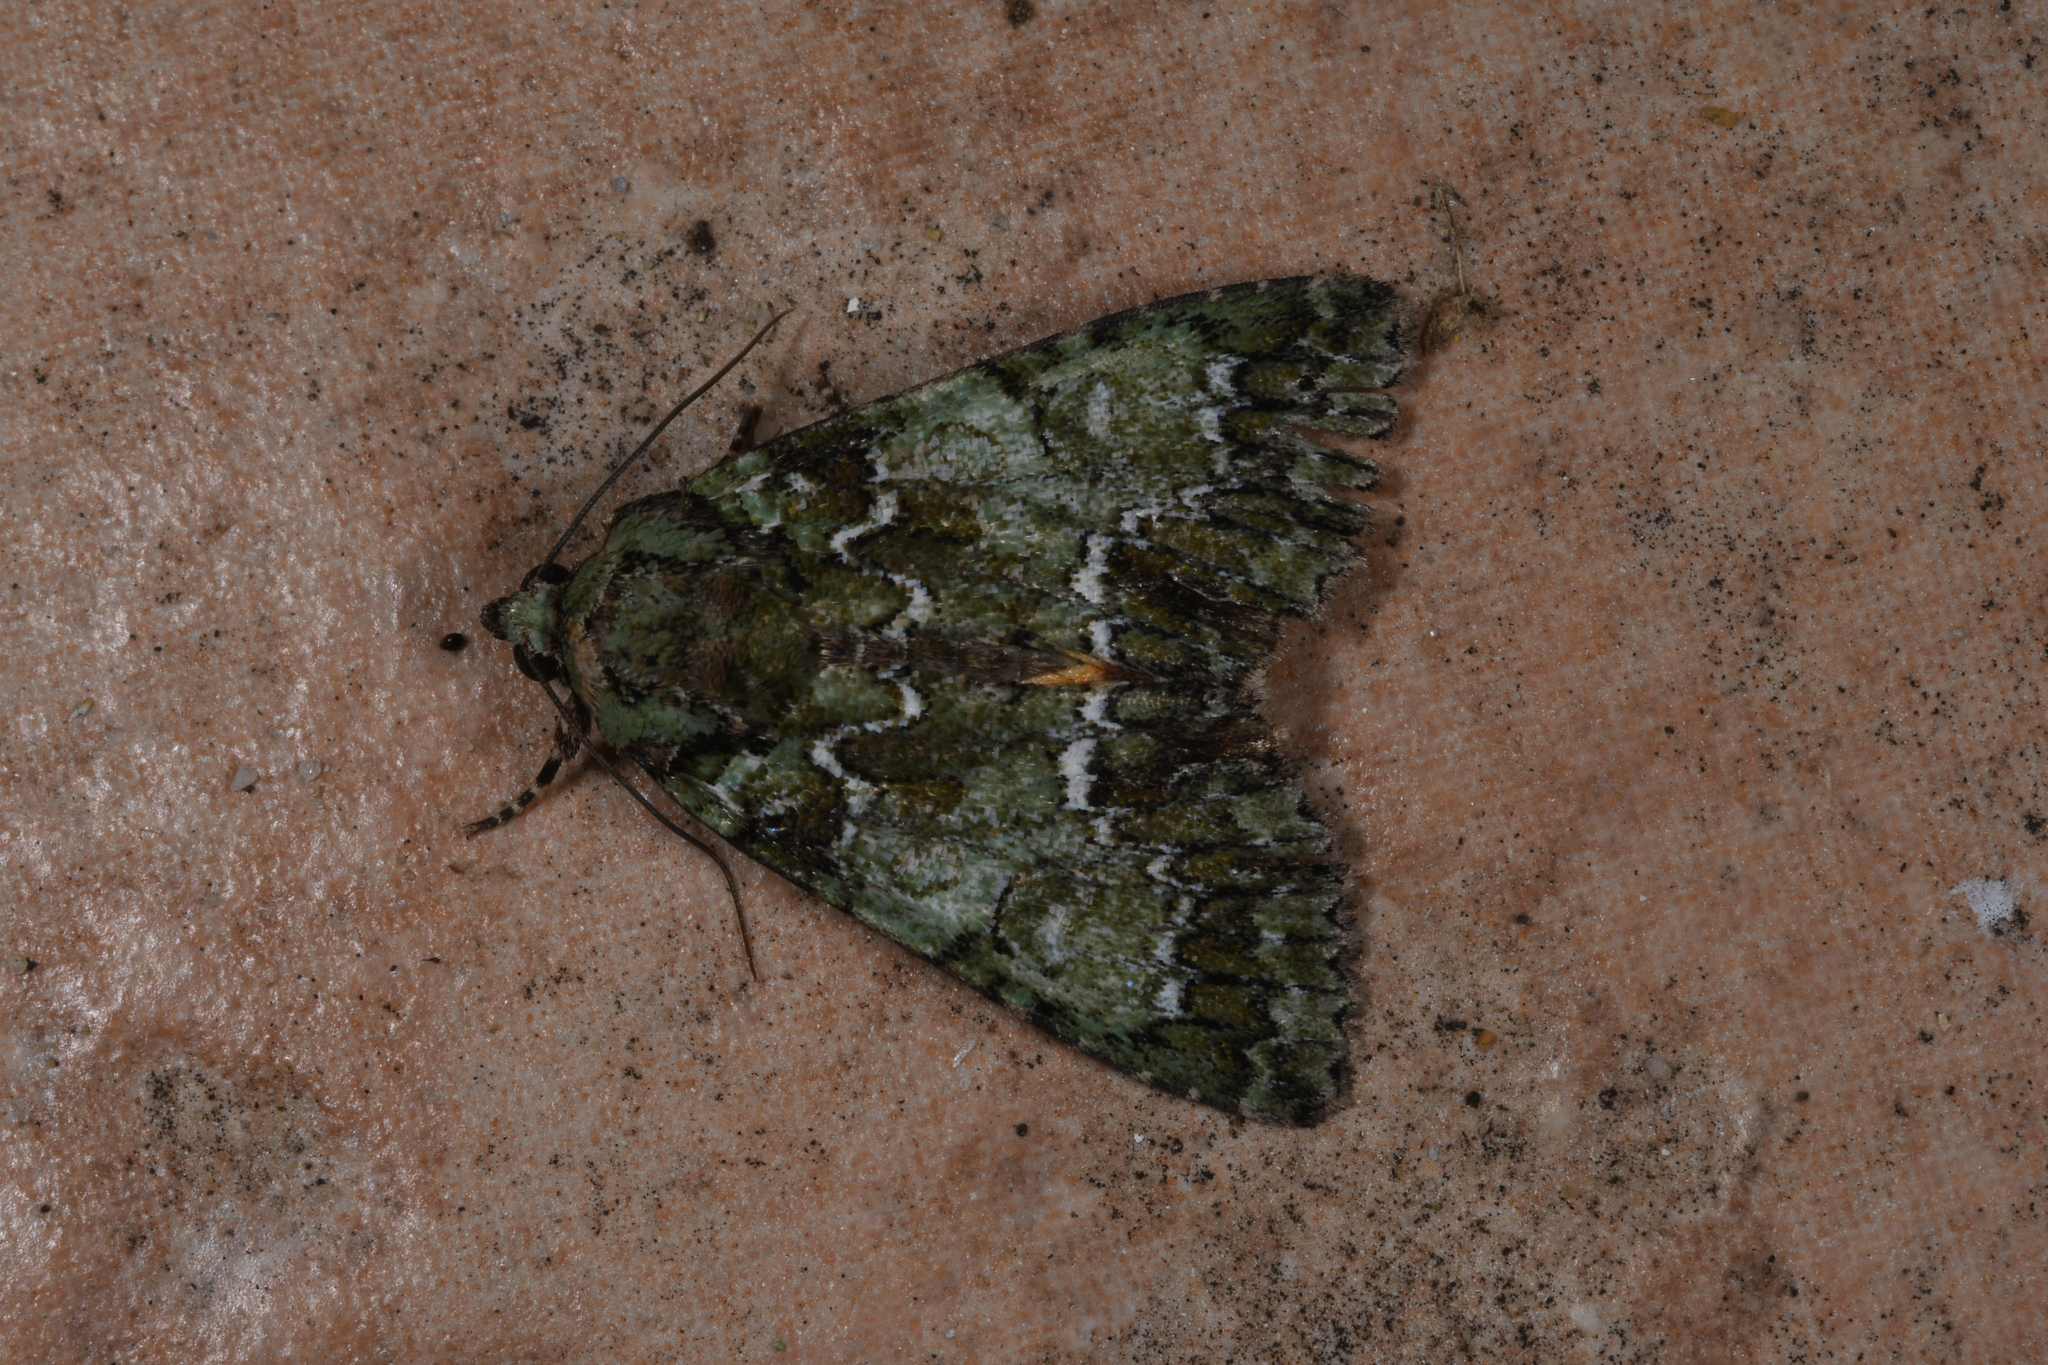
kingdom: Animalia
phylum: Arthropoda
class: Insecta
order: Lepidoptera
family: Noctuidae
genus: Polyphaenis
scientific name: Polyphaenis sericata
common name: Guernsey underwing
